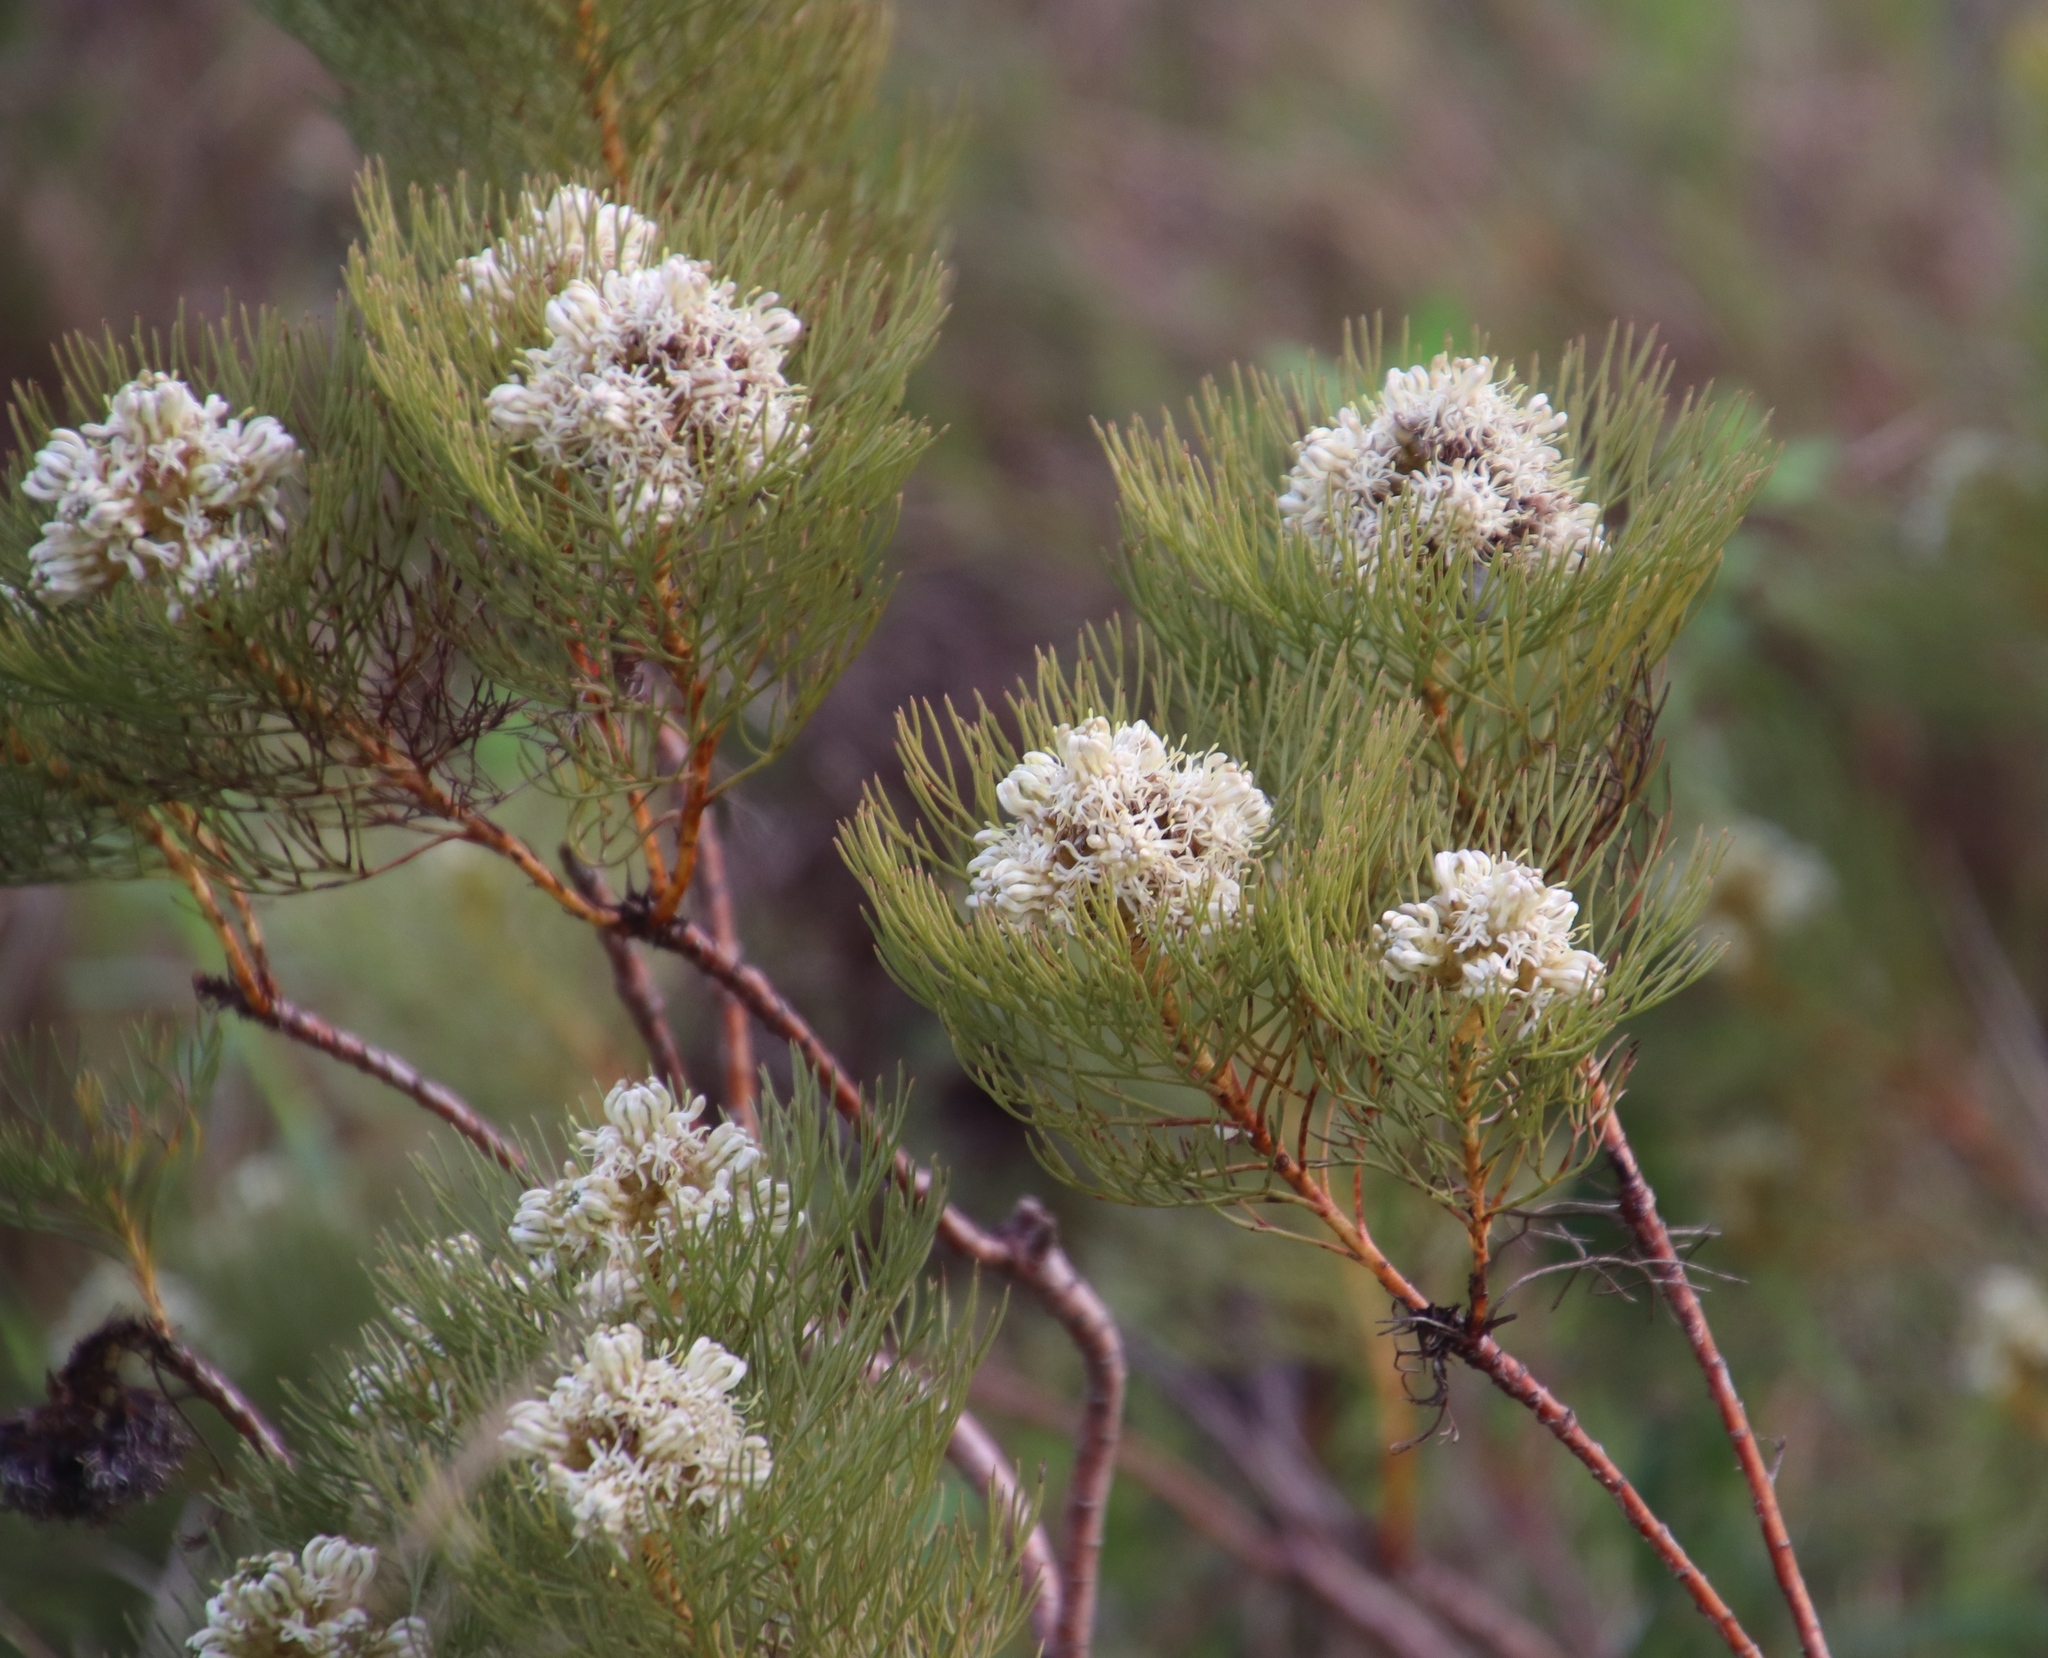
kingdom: Plantae
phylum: Tracheophyta
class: Magnoliopsida
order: Proteales
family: Proteaceae
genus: Serruria
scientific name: Serruria glomerata
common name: Cluster spiderhead
